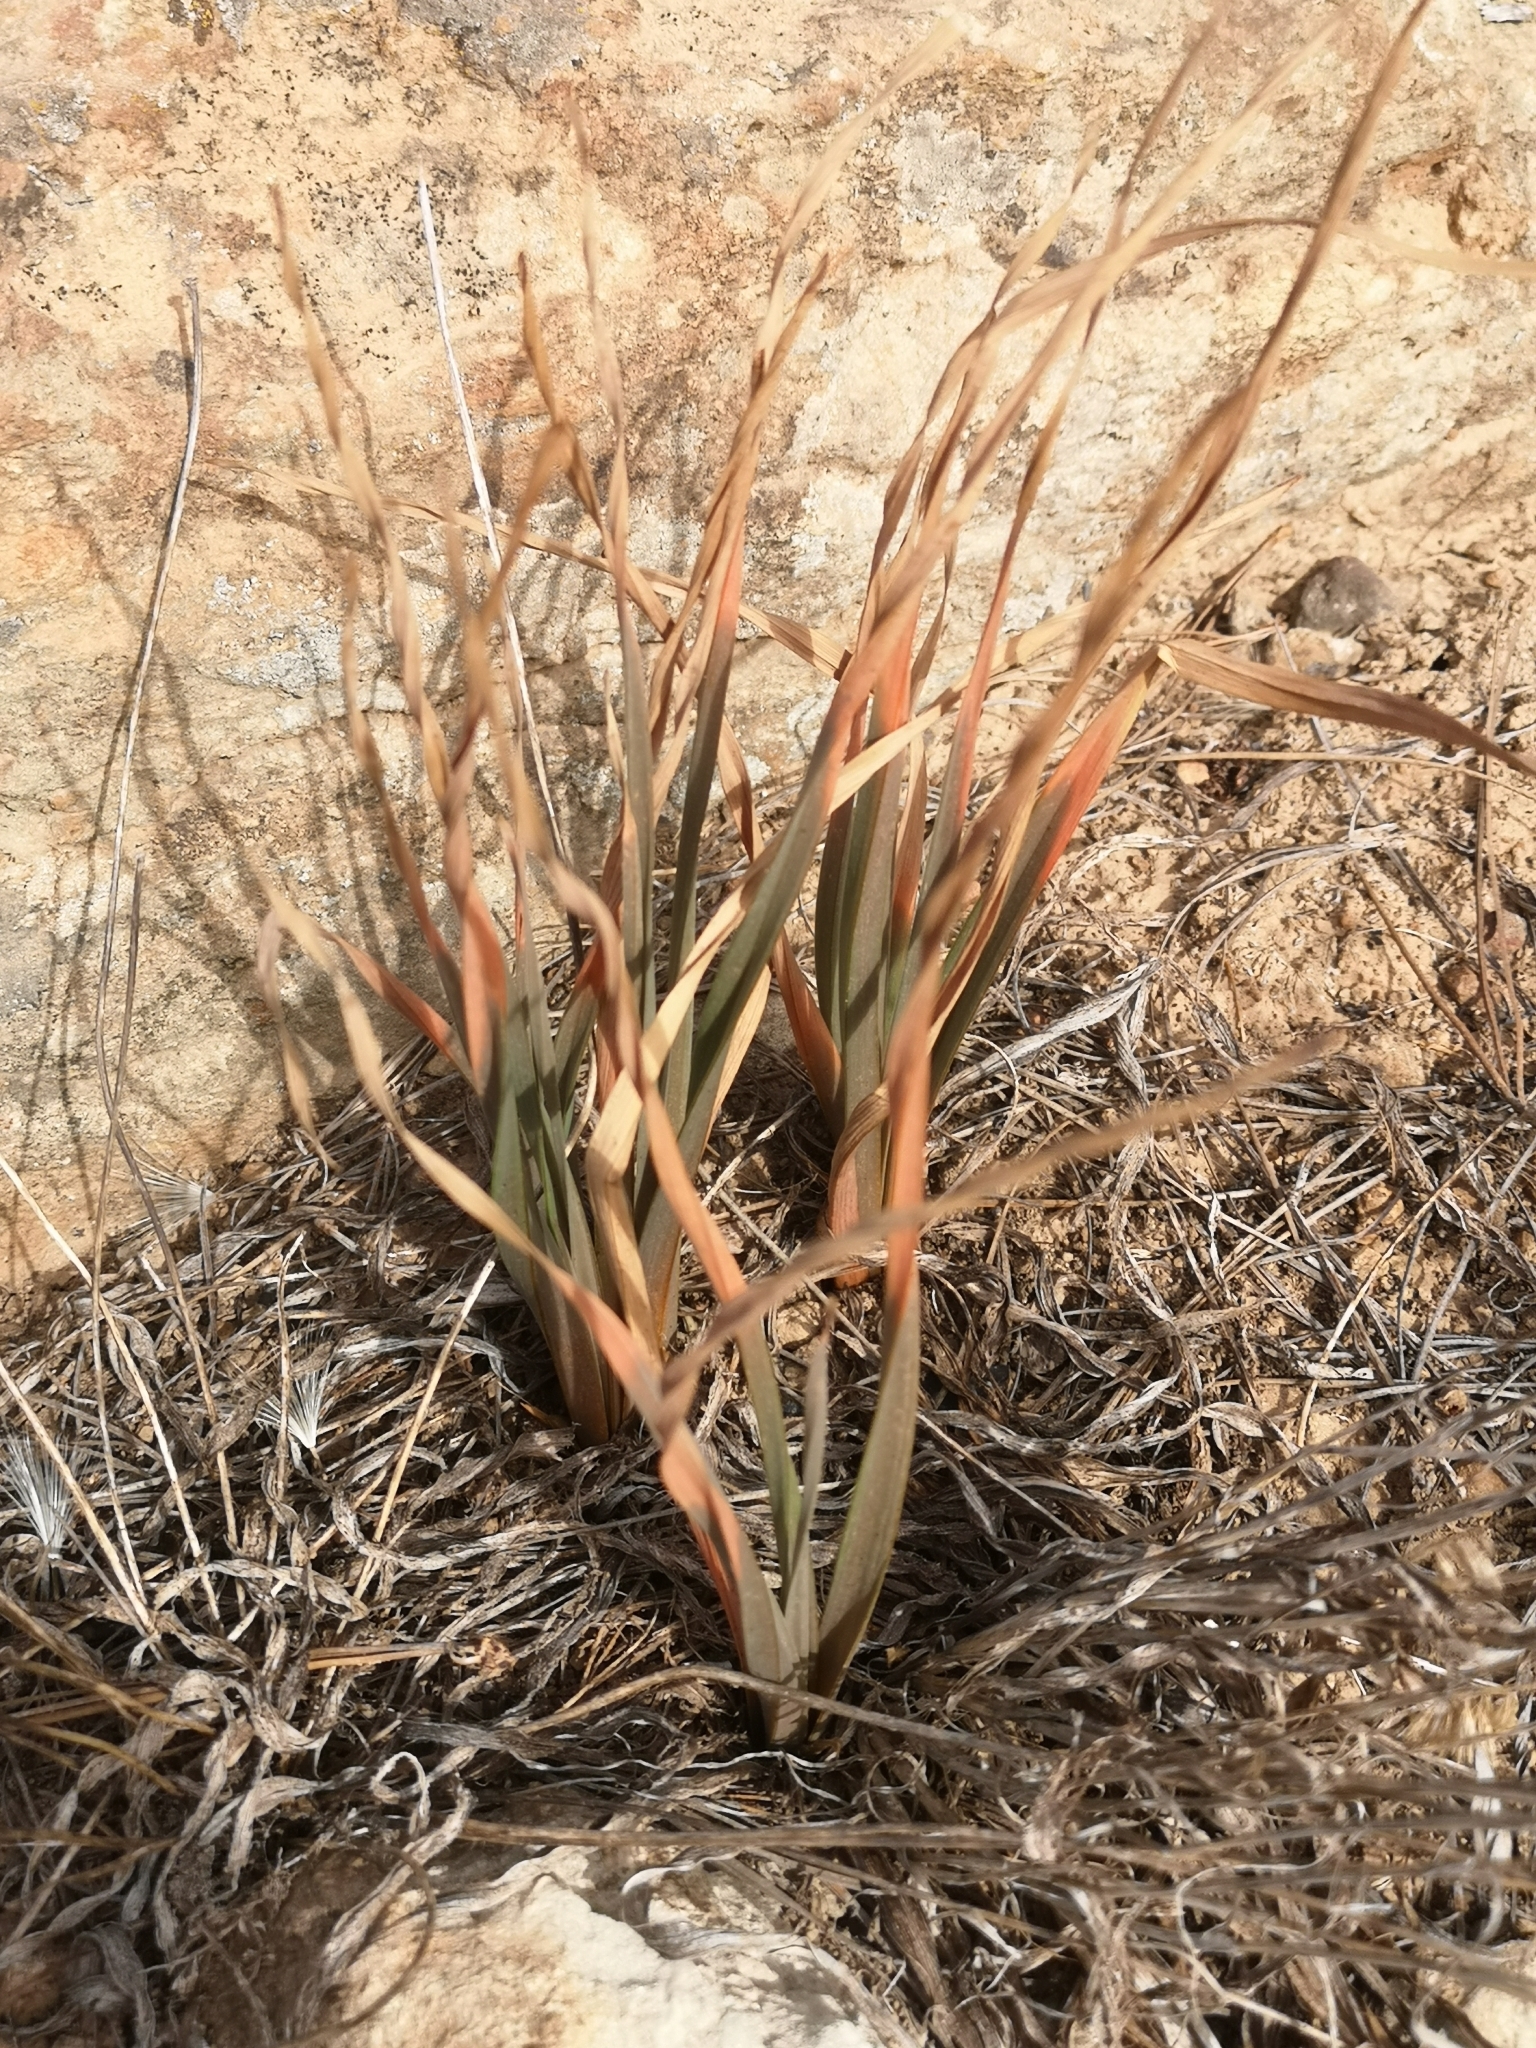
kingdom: Plantae
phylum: Tracheophyta
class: Liliopsida
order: Asparagales
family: Asphodelaceae
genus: Asphodelus
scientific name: Asphodelus ramosus
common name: Silverrod
